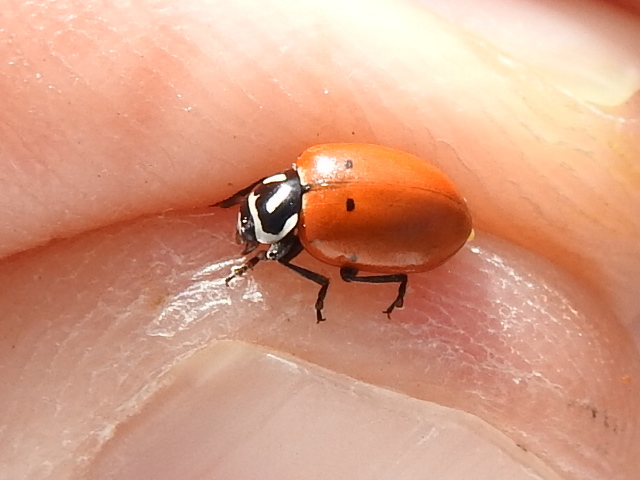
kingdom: Animalia
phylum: Arthropoda
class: Insecta
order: Coleoptera
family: Coccinellidae
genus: Hippodamia
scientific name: Hippodamia convergens
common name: Convergent lady beetle
